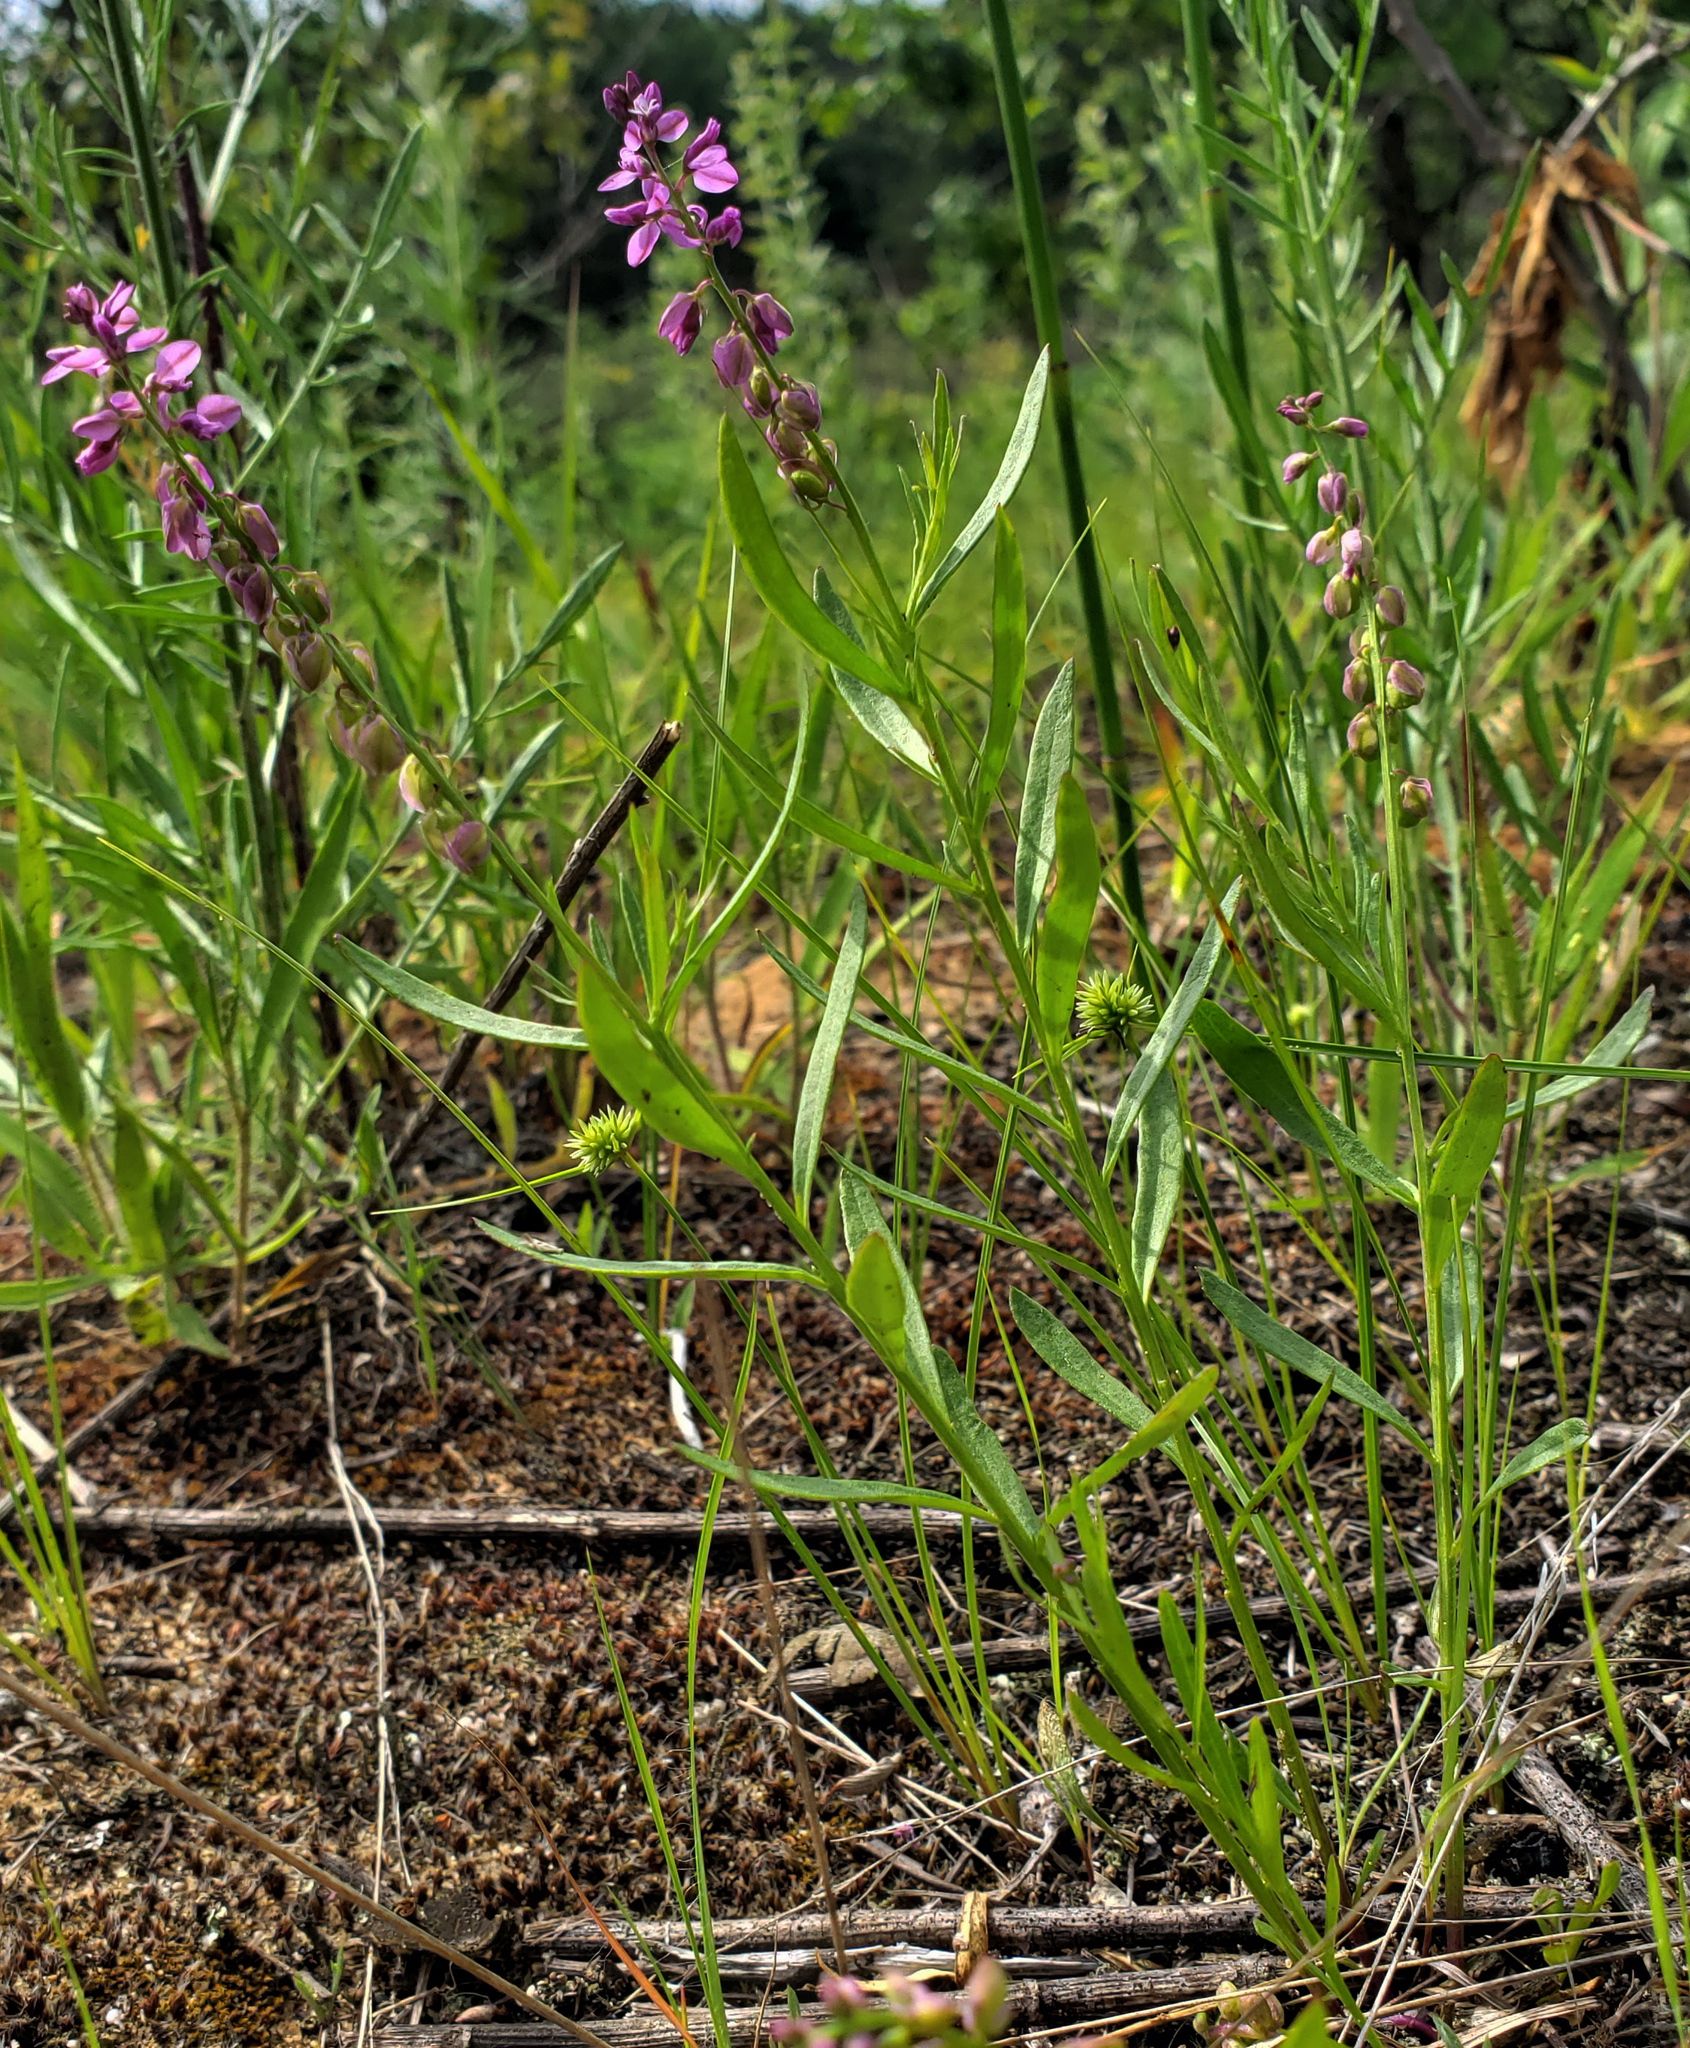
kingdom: Plantae
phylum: Tracheophyta
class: Magnoliopsida
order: Fabales
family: Polygalaceae
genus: Polygala
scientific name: Polygala polygama
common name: Bitter milkwort
